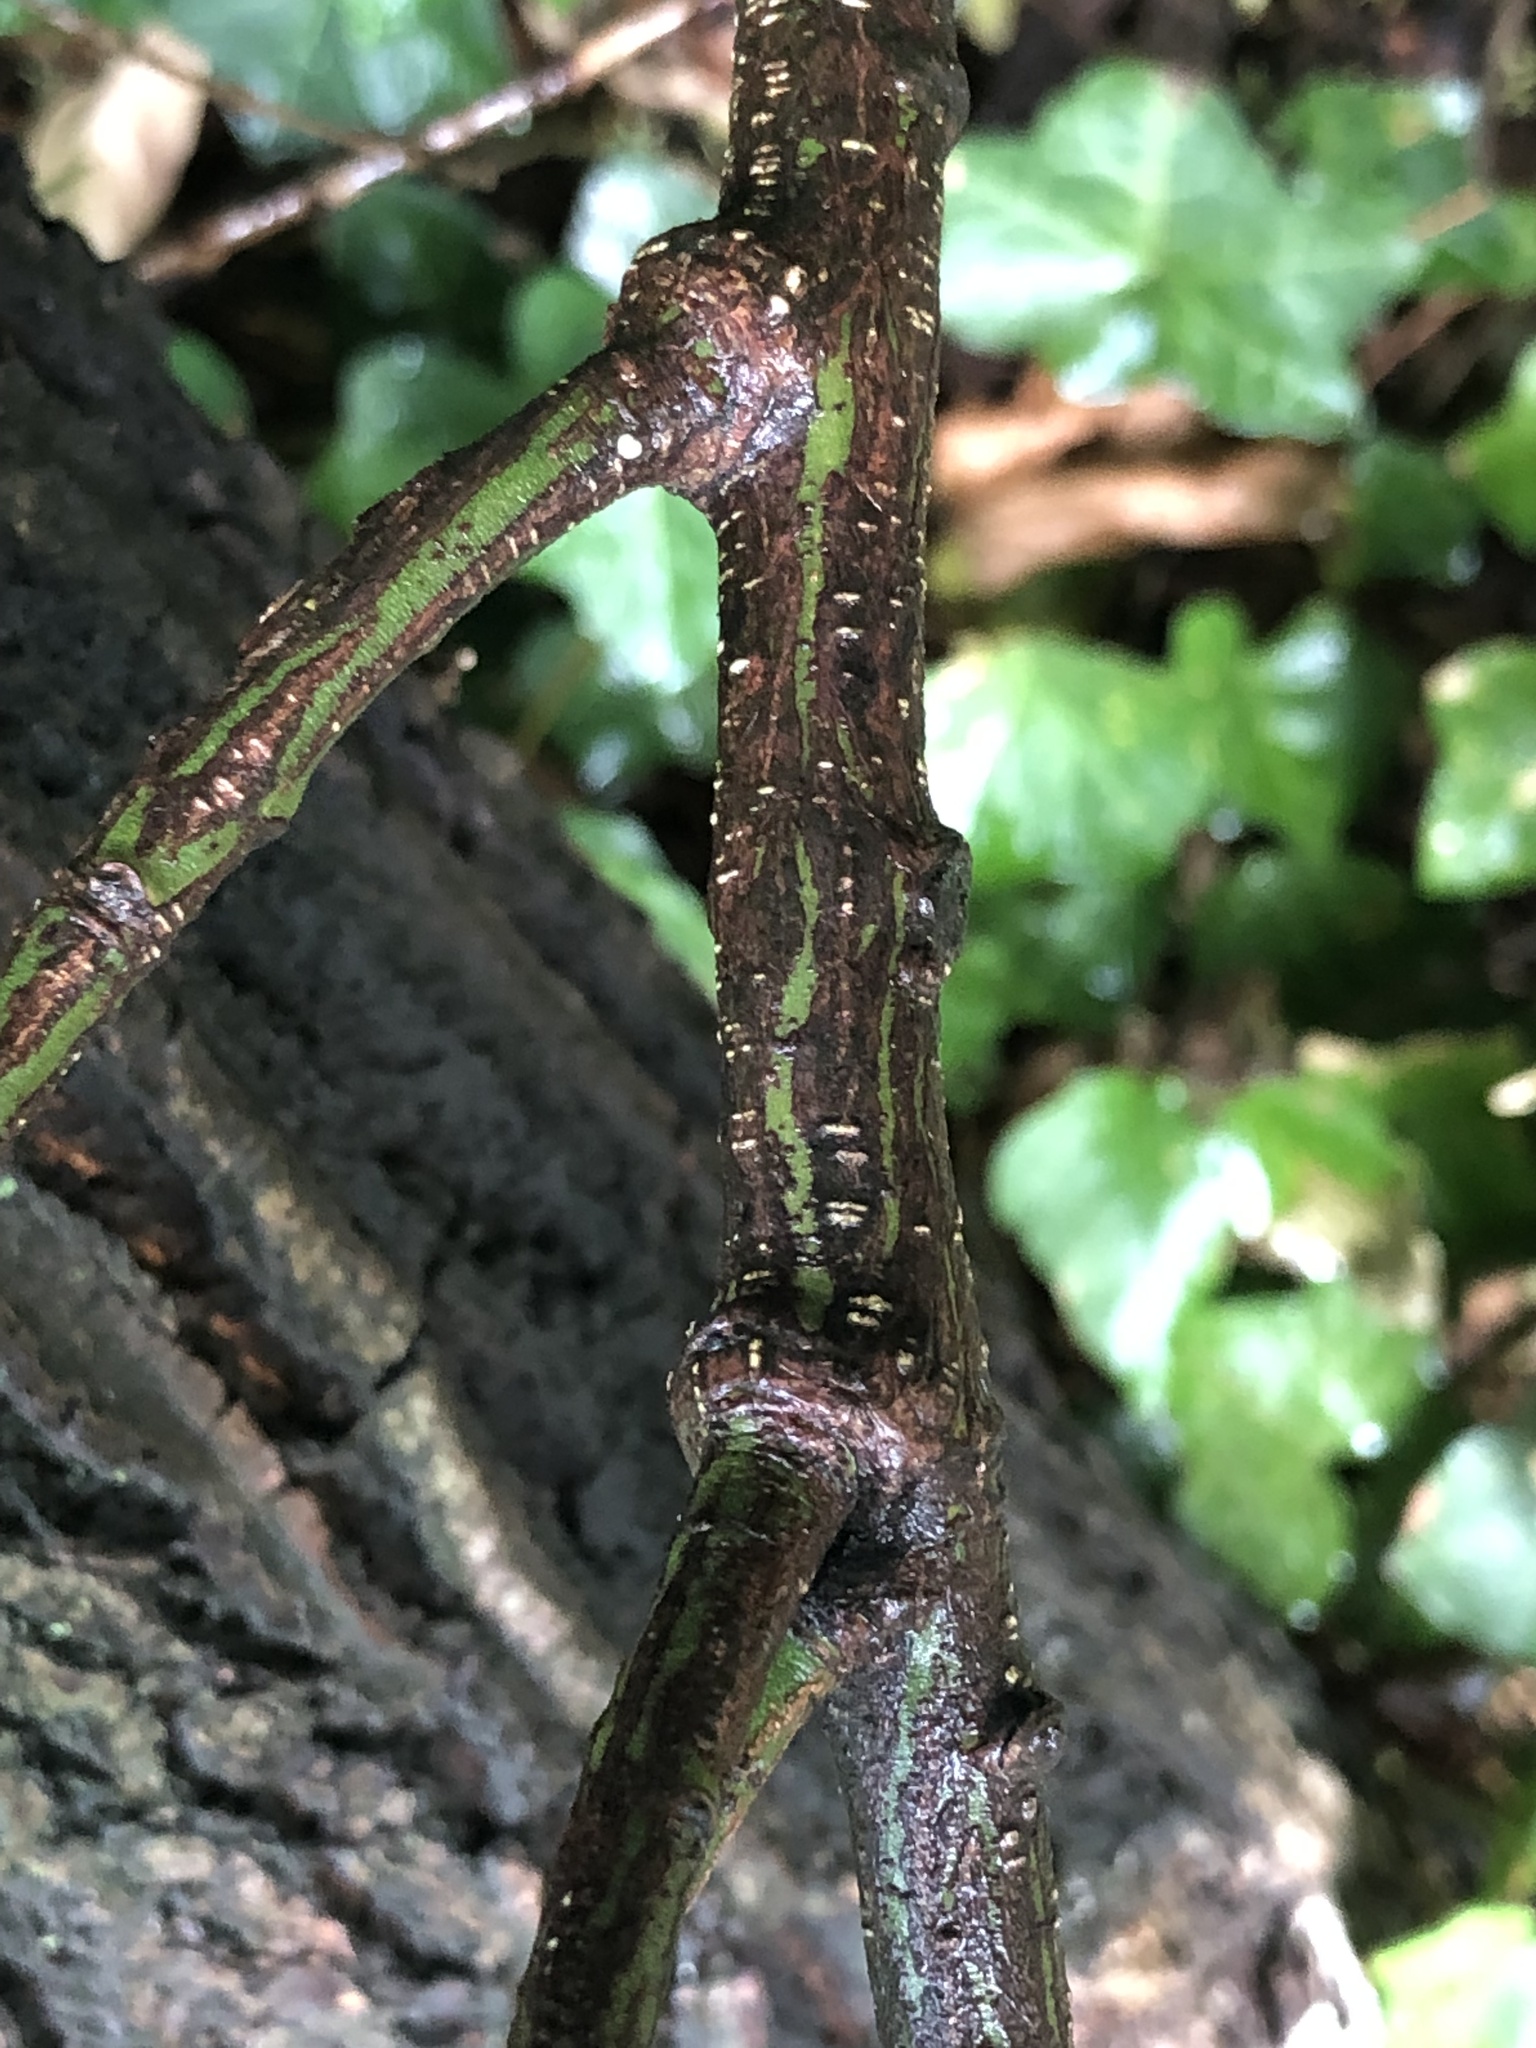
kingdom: Plantae
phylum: Tracheophyta
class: Magnoliopsida
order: Celastrales
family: Celastraceae
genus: Euonymus
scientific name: Euonymus japonicus
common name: Japanese spindletree
